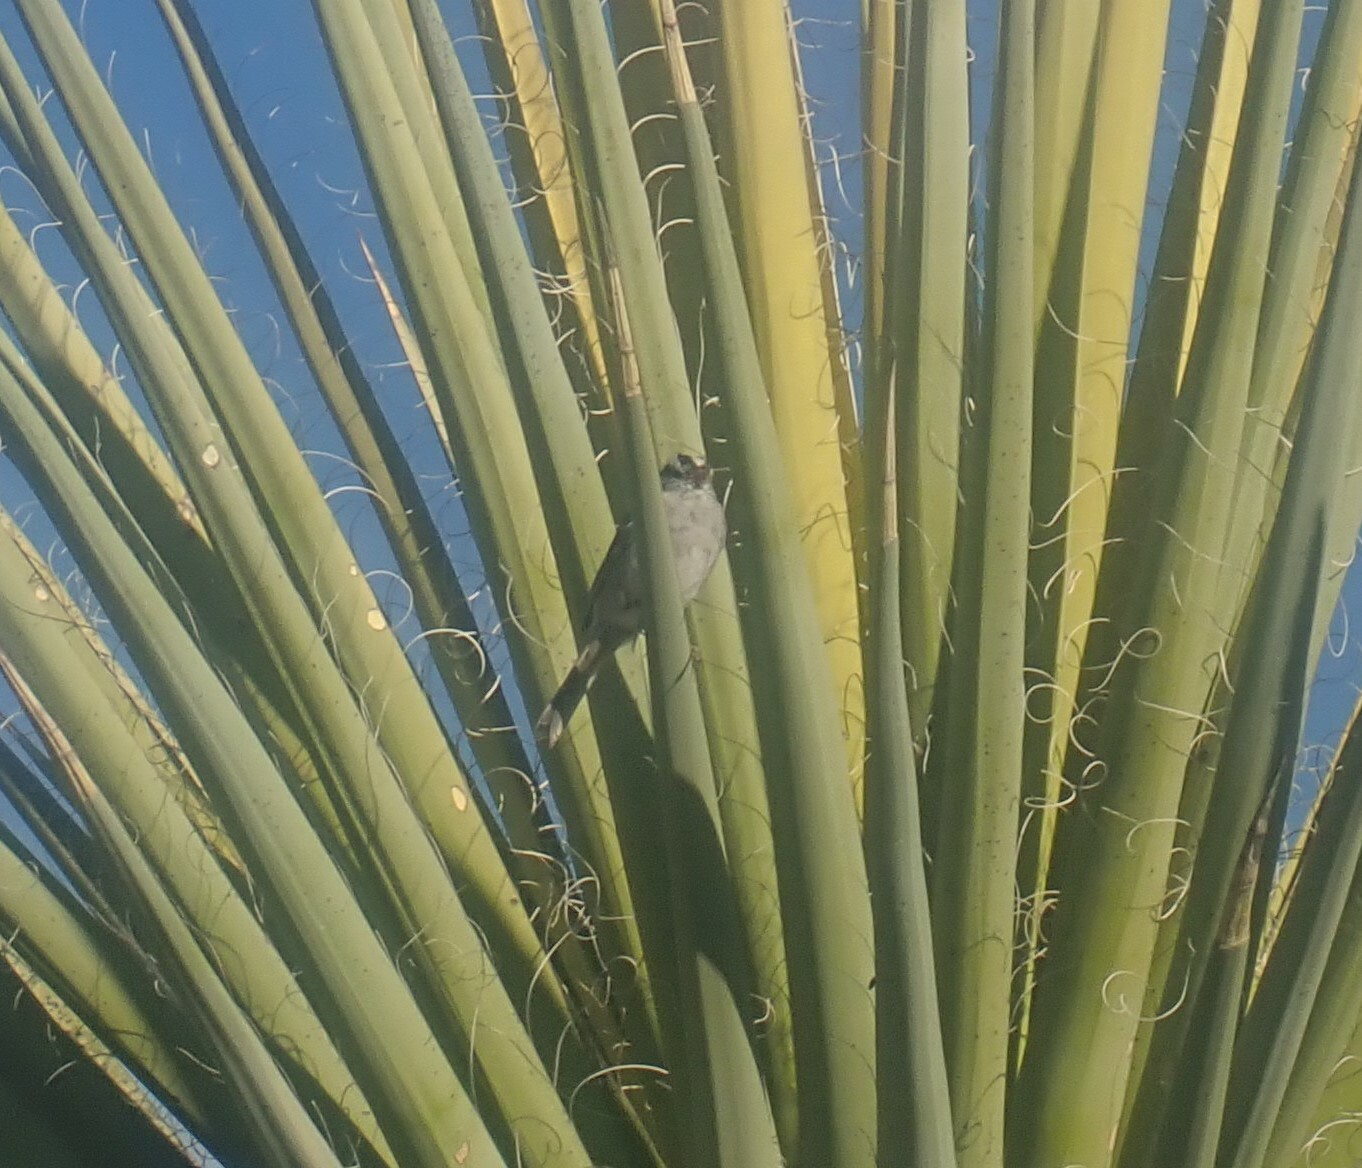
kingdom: Animalia
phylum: Chordata
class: Aves
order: Passeriformes
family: Passerellidae
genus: Zonotrichia
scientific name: Zonotrichia leucophrys
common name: White-crowned sparrow
